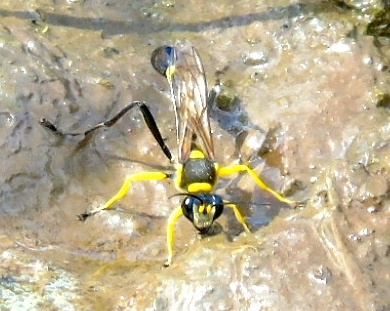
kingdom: Animalia
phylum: Arthropoda
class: Insecta
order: Hymenoptera
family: Sphecidae
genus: Sceliphron
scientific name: Sceliphron
